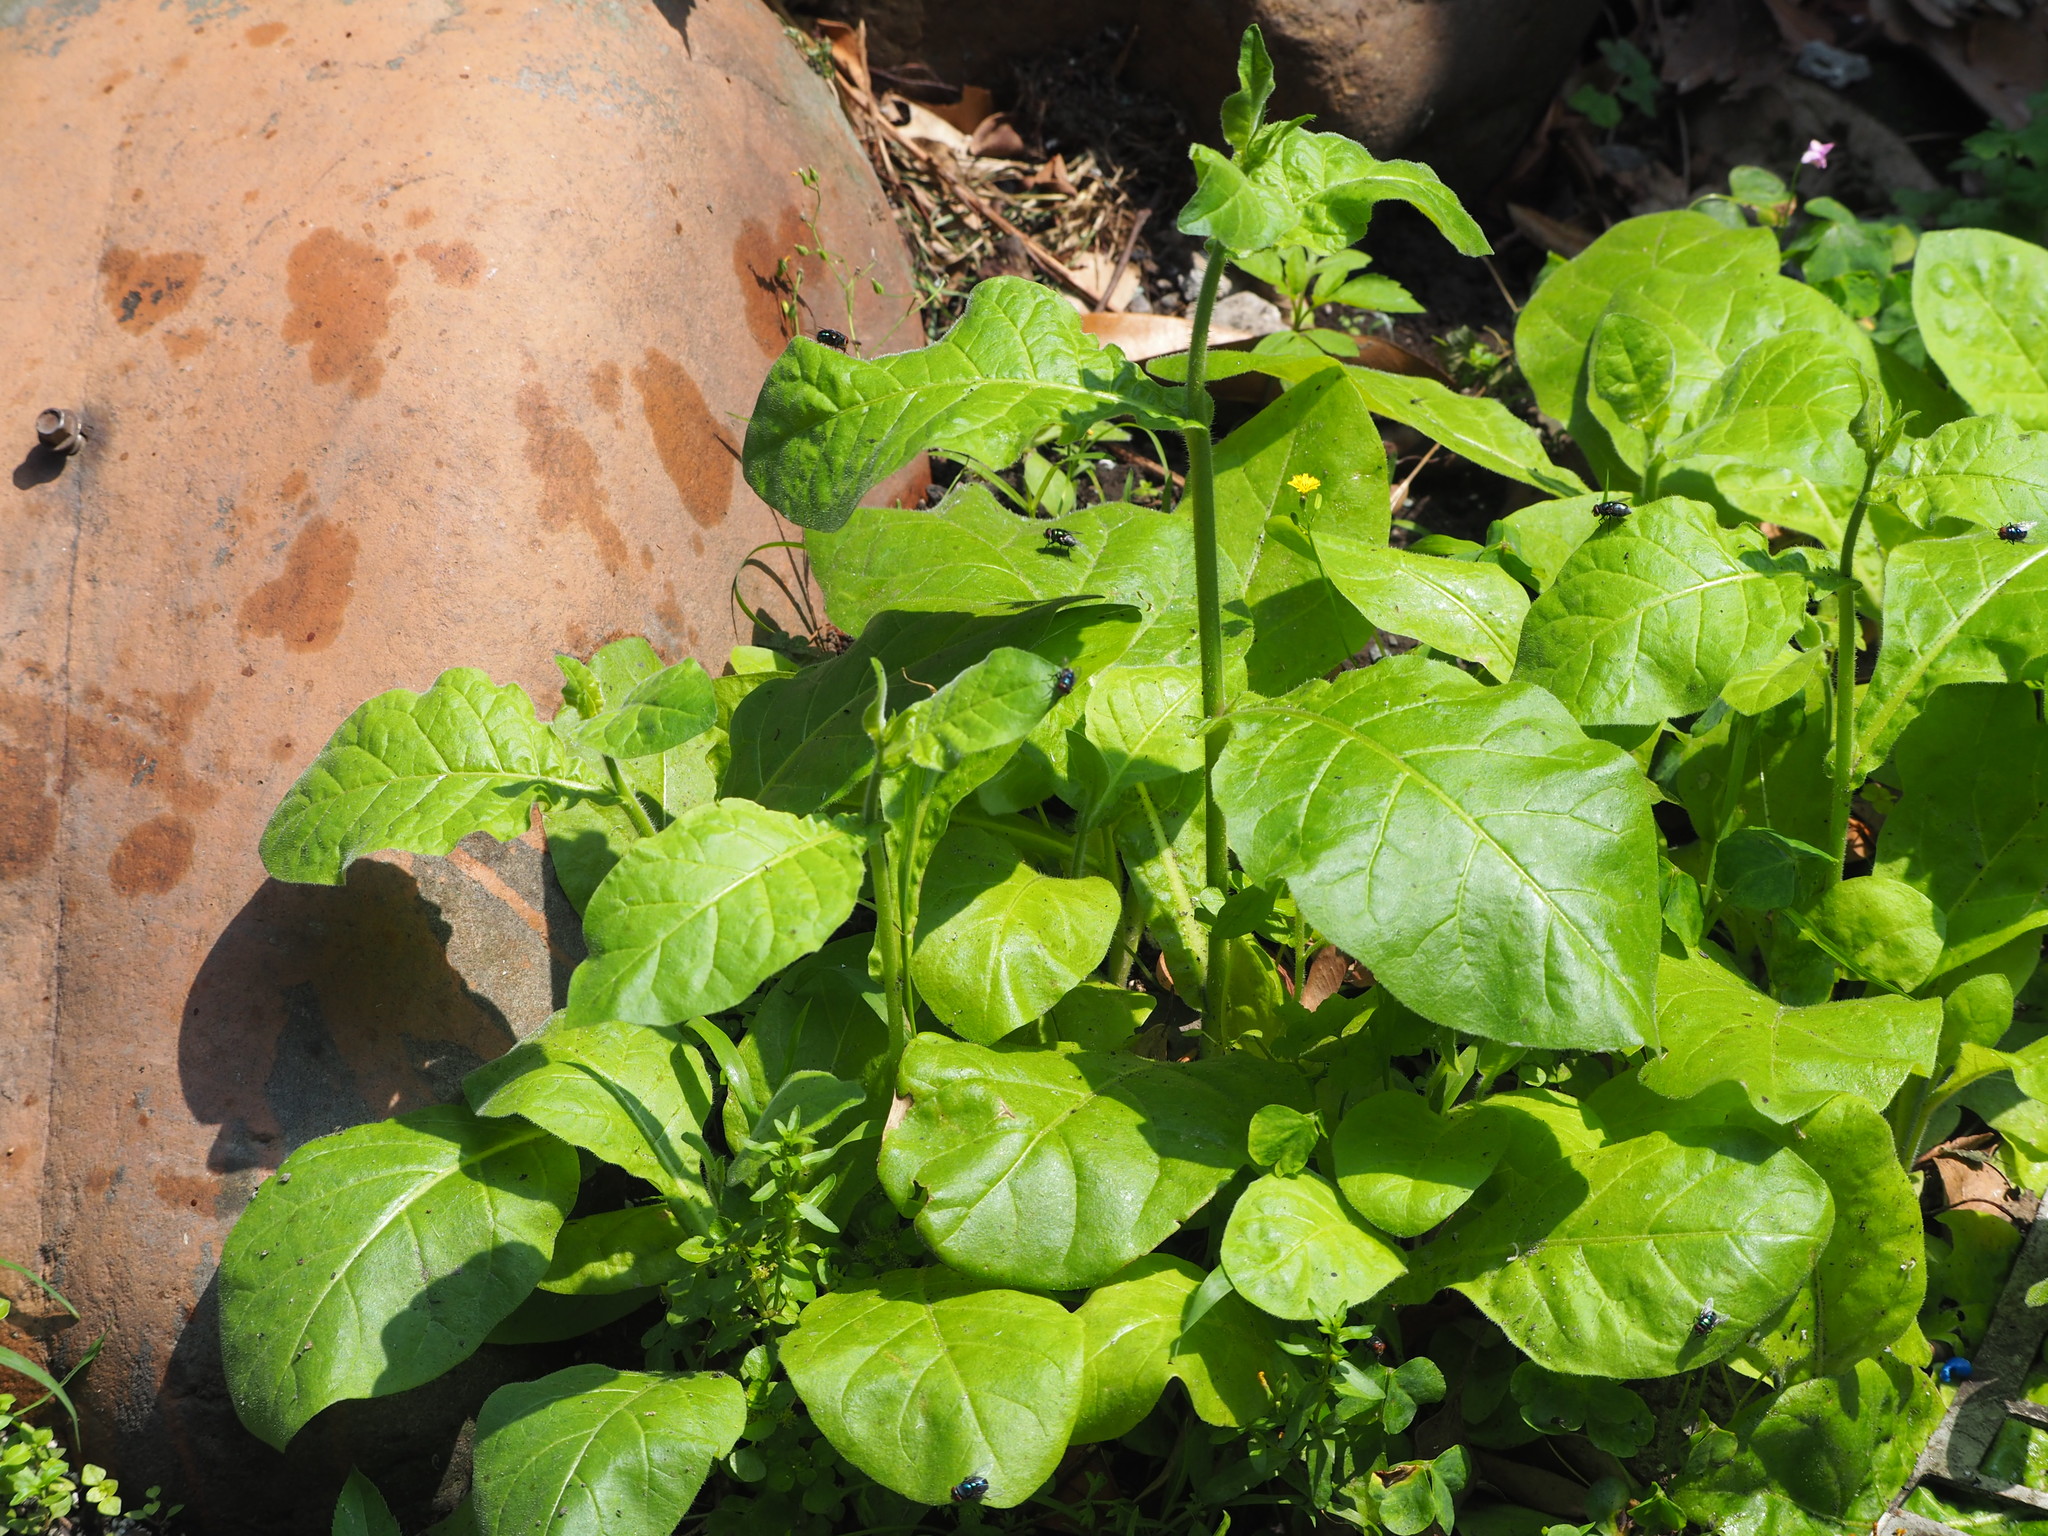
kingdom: Plantae
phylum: Tracheophyta
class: Magnoliopsida
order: Solanales
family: Solanaceae
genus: Nicotiana
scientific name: Nicotiana plumbaginifolia
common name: Tex-mex tobacco
